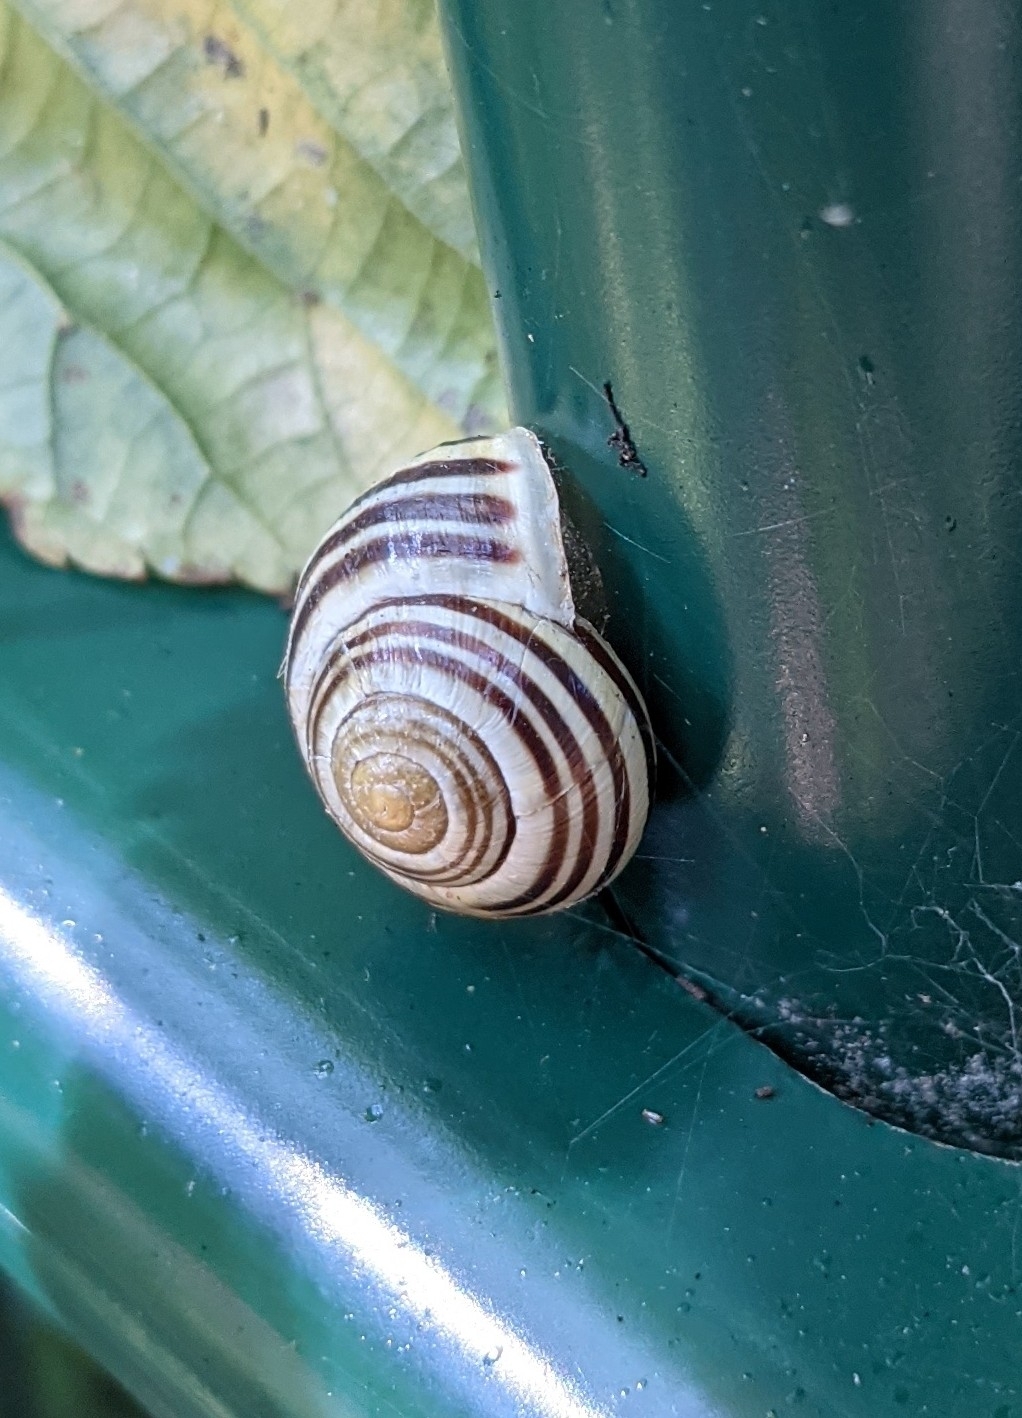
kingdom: Animalia
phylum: Mollusca
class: Gastropoda
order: Stylommatophora
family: Helicidae
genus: Cepaea
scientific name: Cepaea hortensis
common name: White-lip gardensnail
